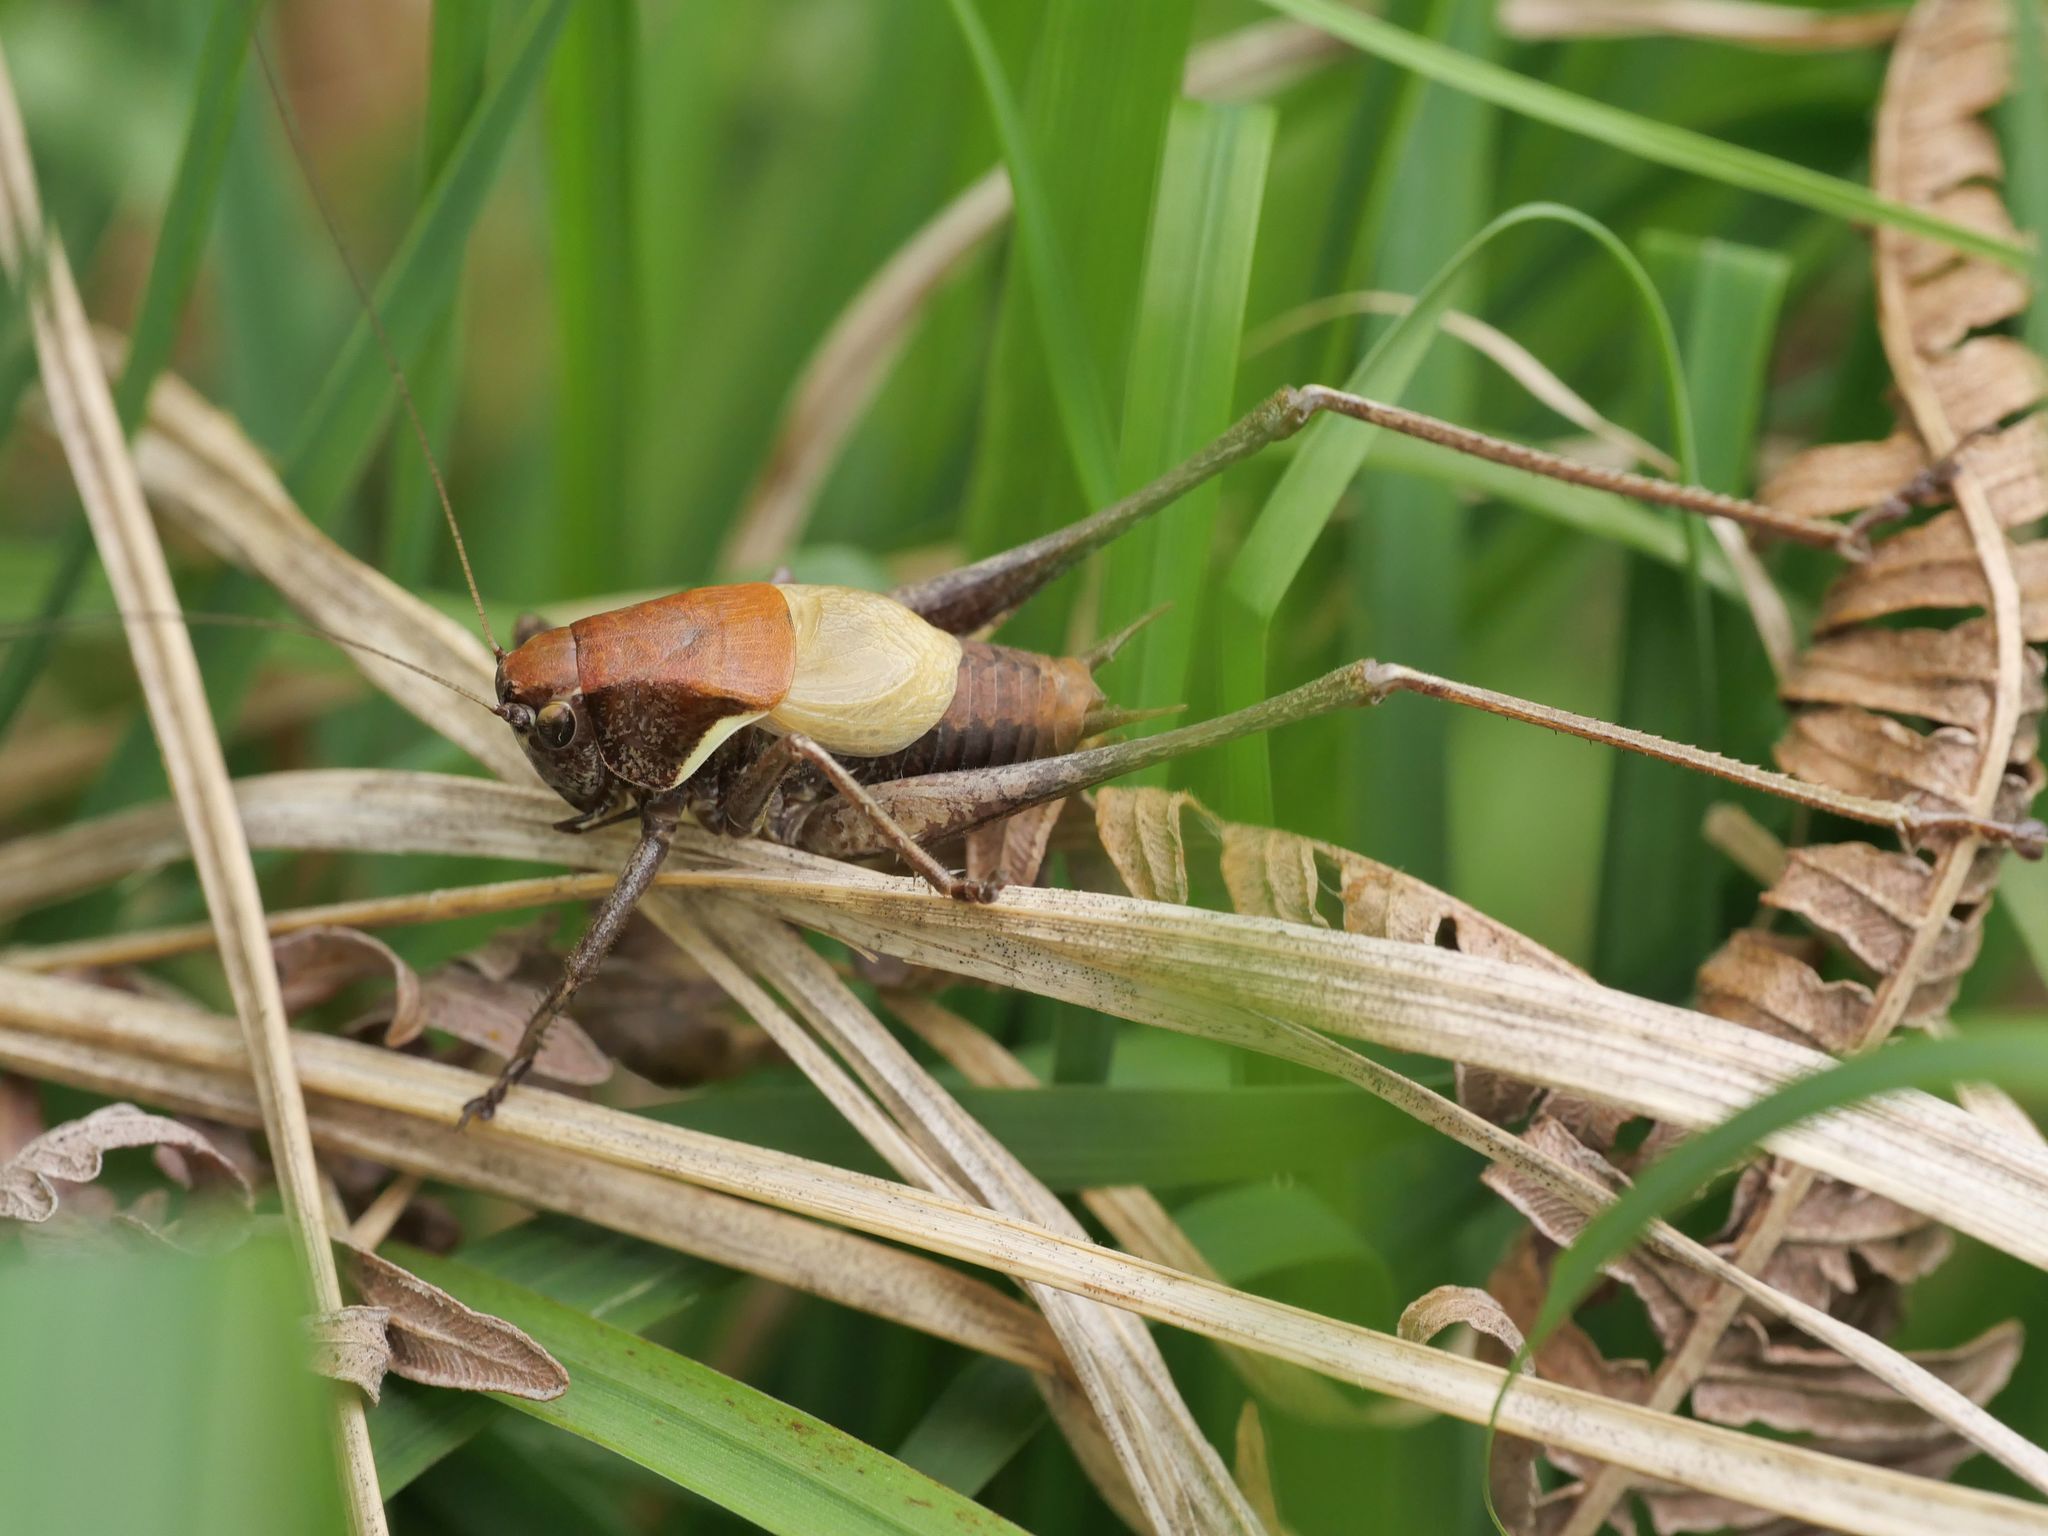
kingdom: Animalia
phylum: Arthropoda
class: Insecta
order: Orthoptera
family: Tettigoniidae
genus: Pholidoptera
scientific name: Pholidoptera aptera
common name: Alpine dark bush-cricket
